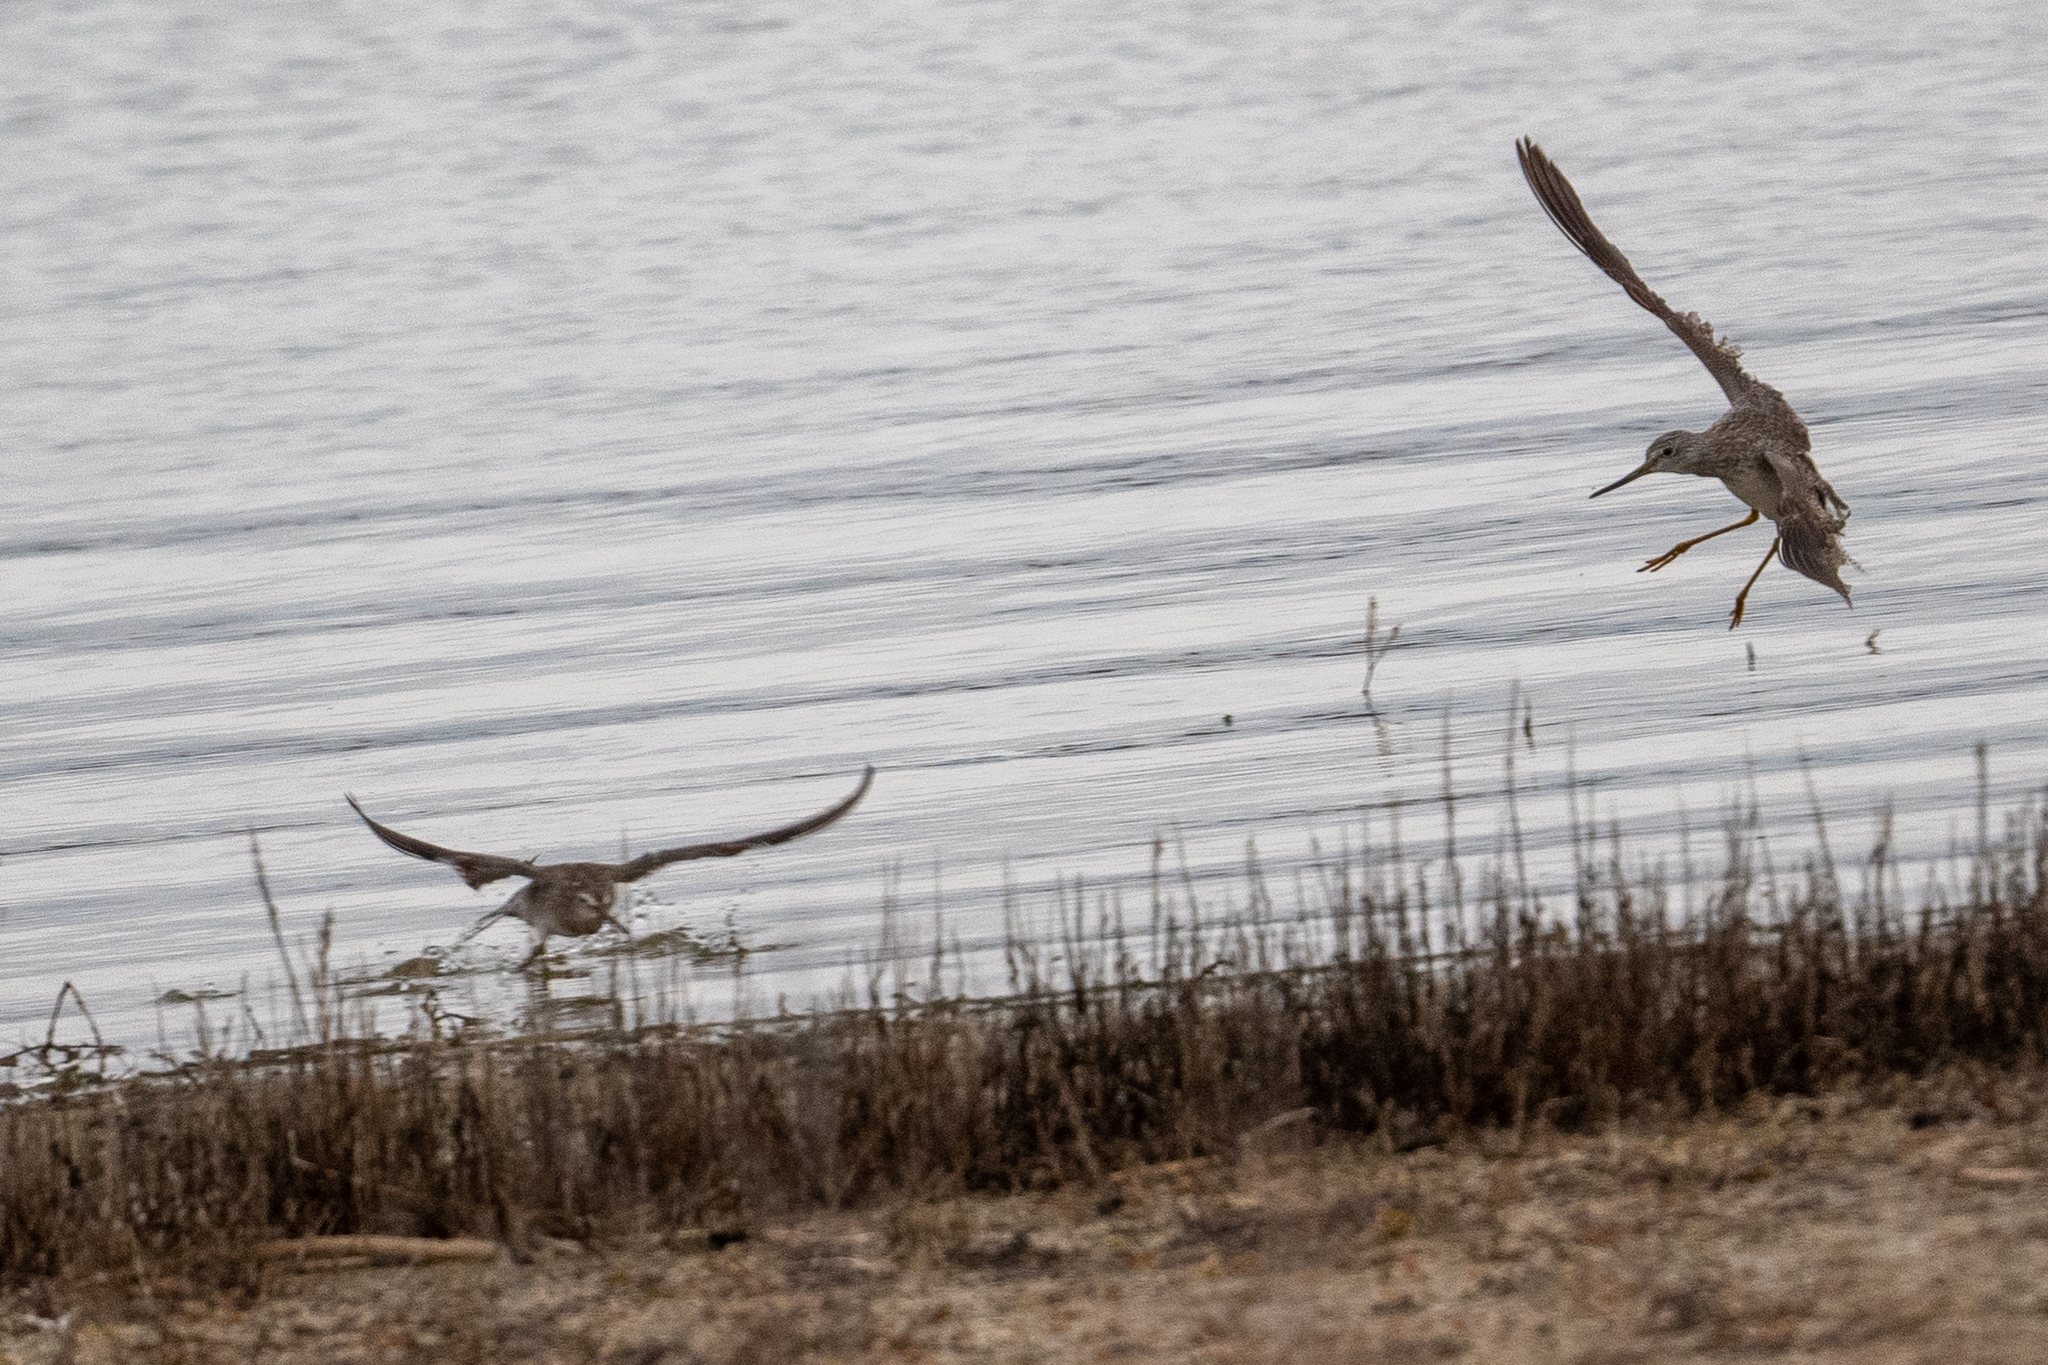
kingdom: Animalia
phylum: Chordata
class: Aves
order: Charadriiformes
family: Scolopacidae
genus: Tringa
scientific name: Tringa melanoleuca
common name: Greater yellowlegs
